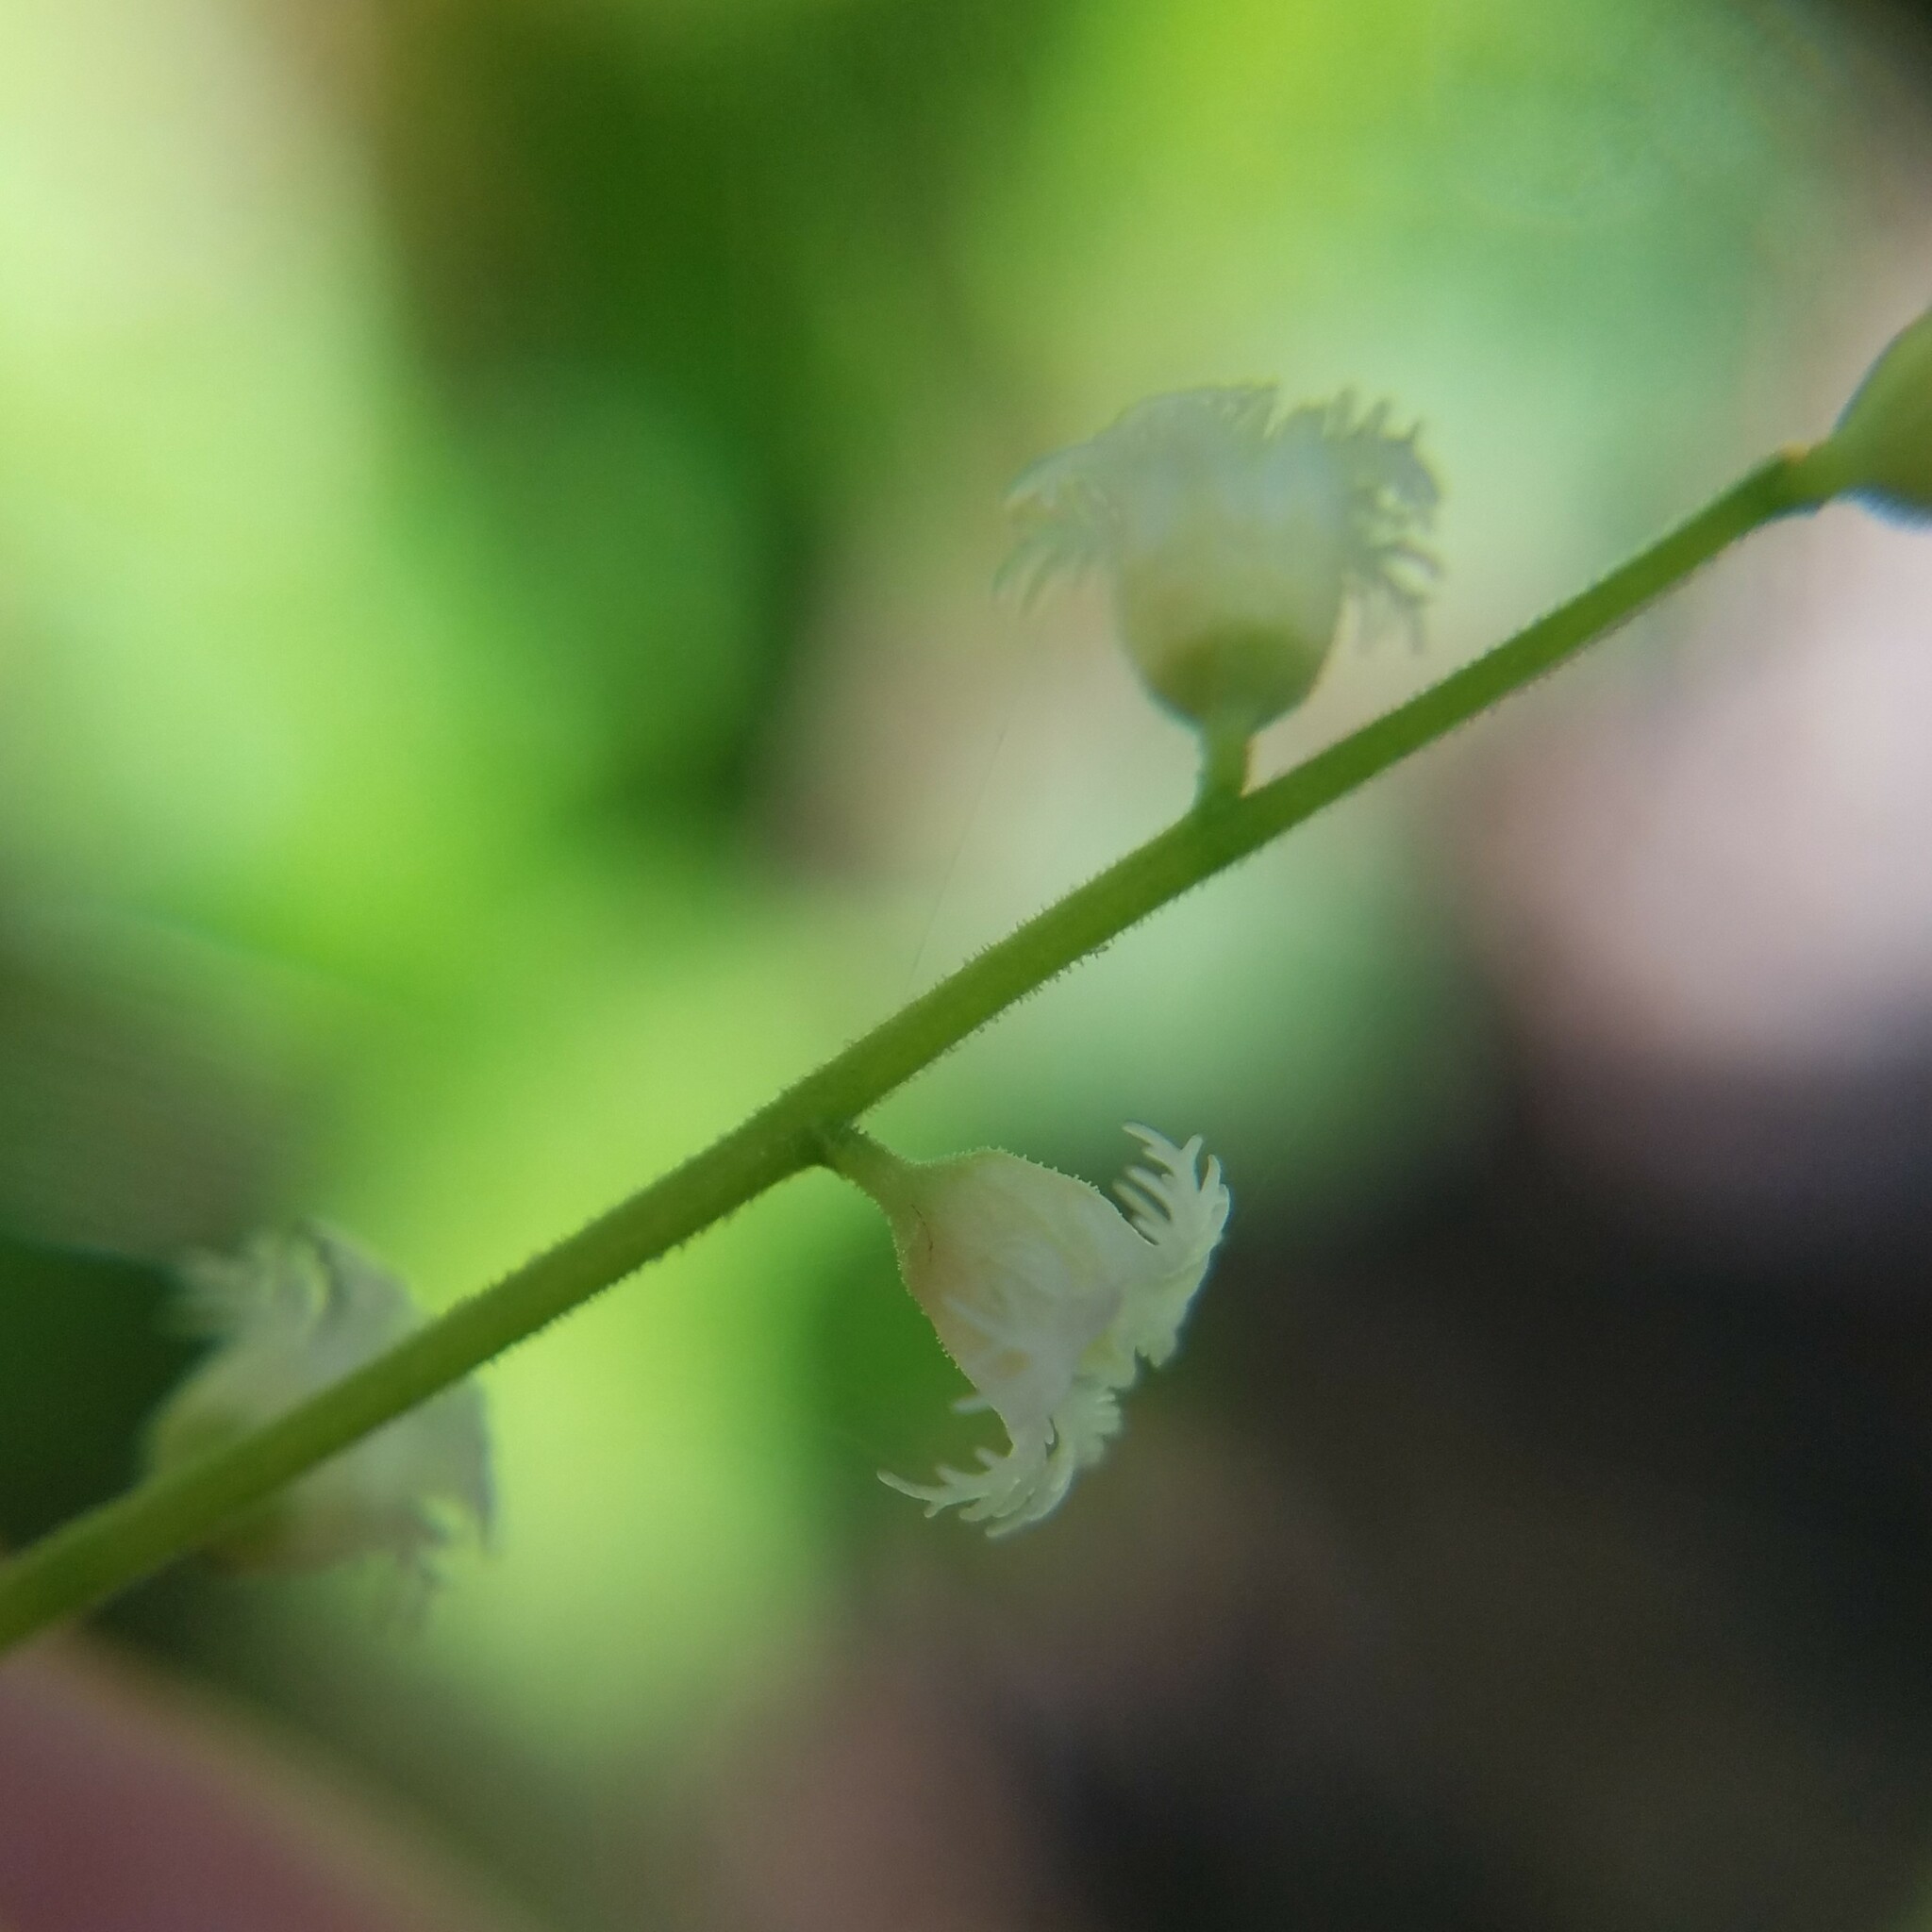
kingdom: Plantae
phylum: Tracheophyta
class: Magnoliopsida
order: Saxifragales
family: Saxifragaceae
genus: Mitella
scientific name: Mitella diphylla
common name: Coolwort
